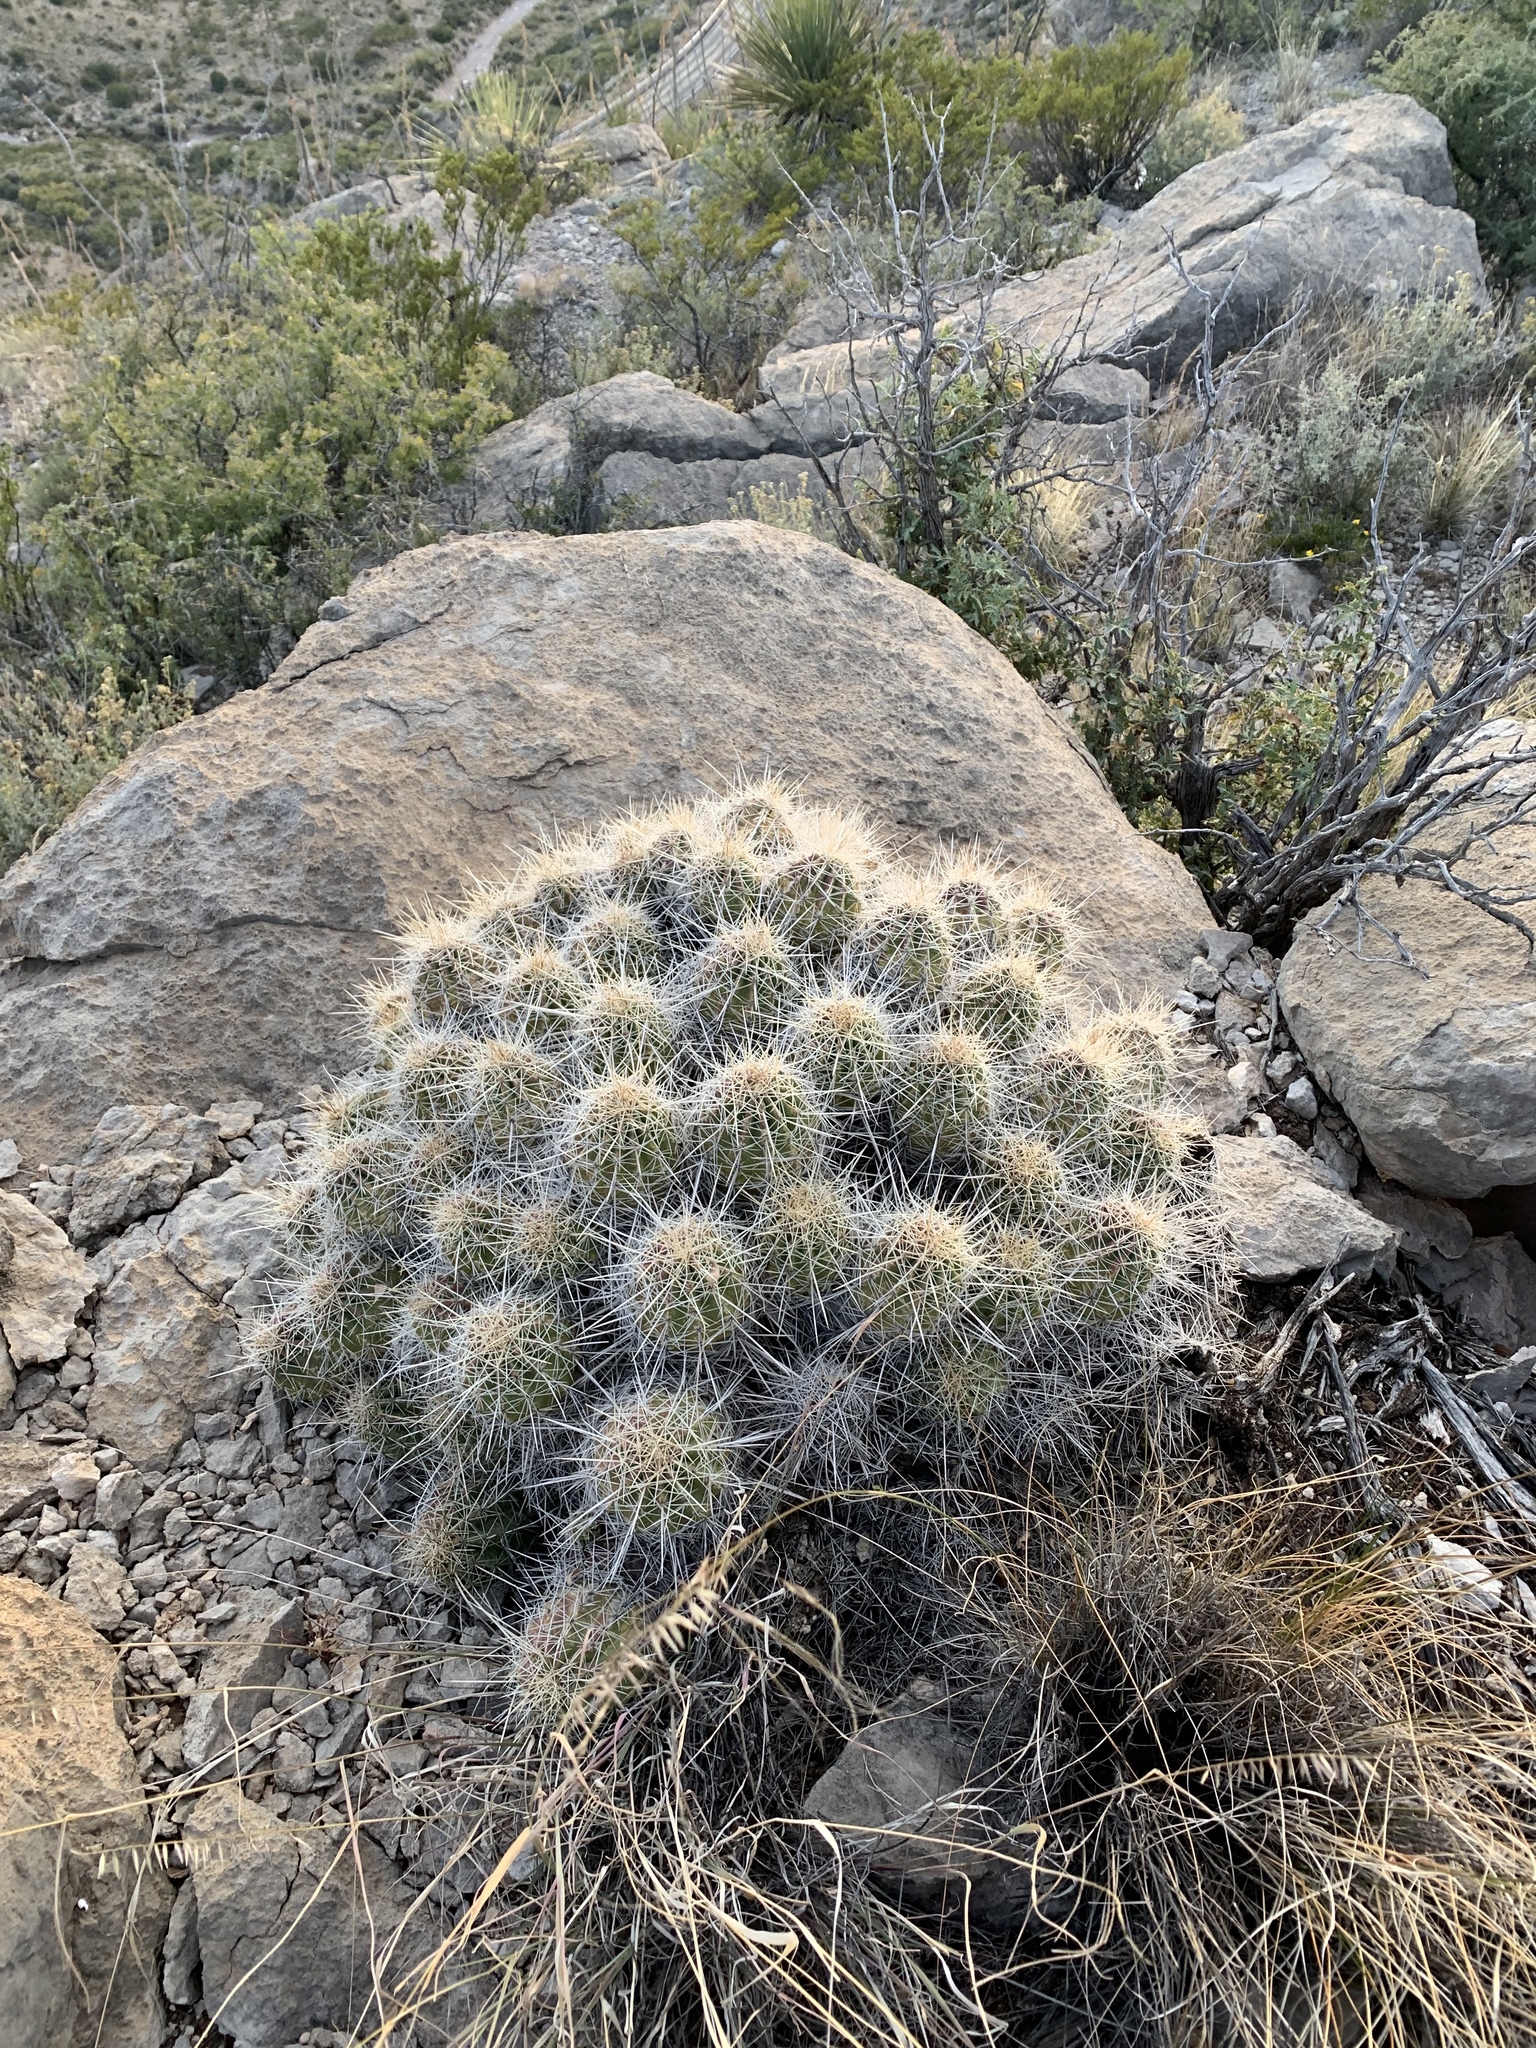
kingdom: Plantae
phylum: Tracheophyta
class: Magnoliopsida
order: Caryophyllales
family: Cactaceae
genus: Echinocereus
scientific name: Echinocereus coccineus
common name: Scarlet hedgehog cactus
